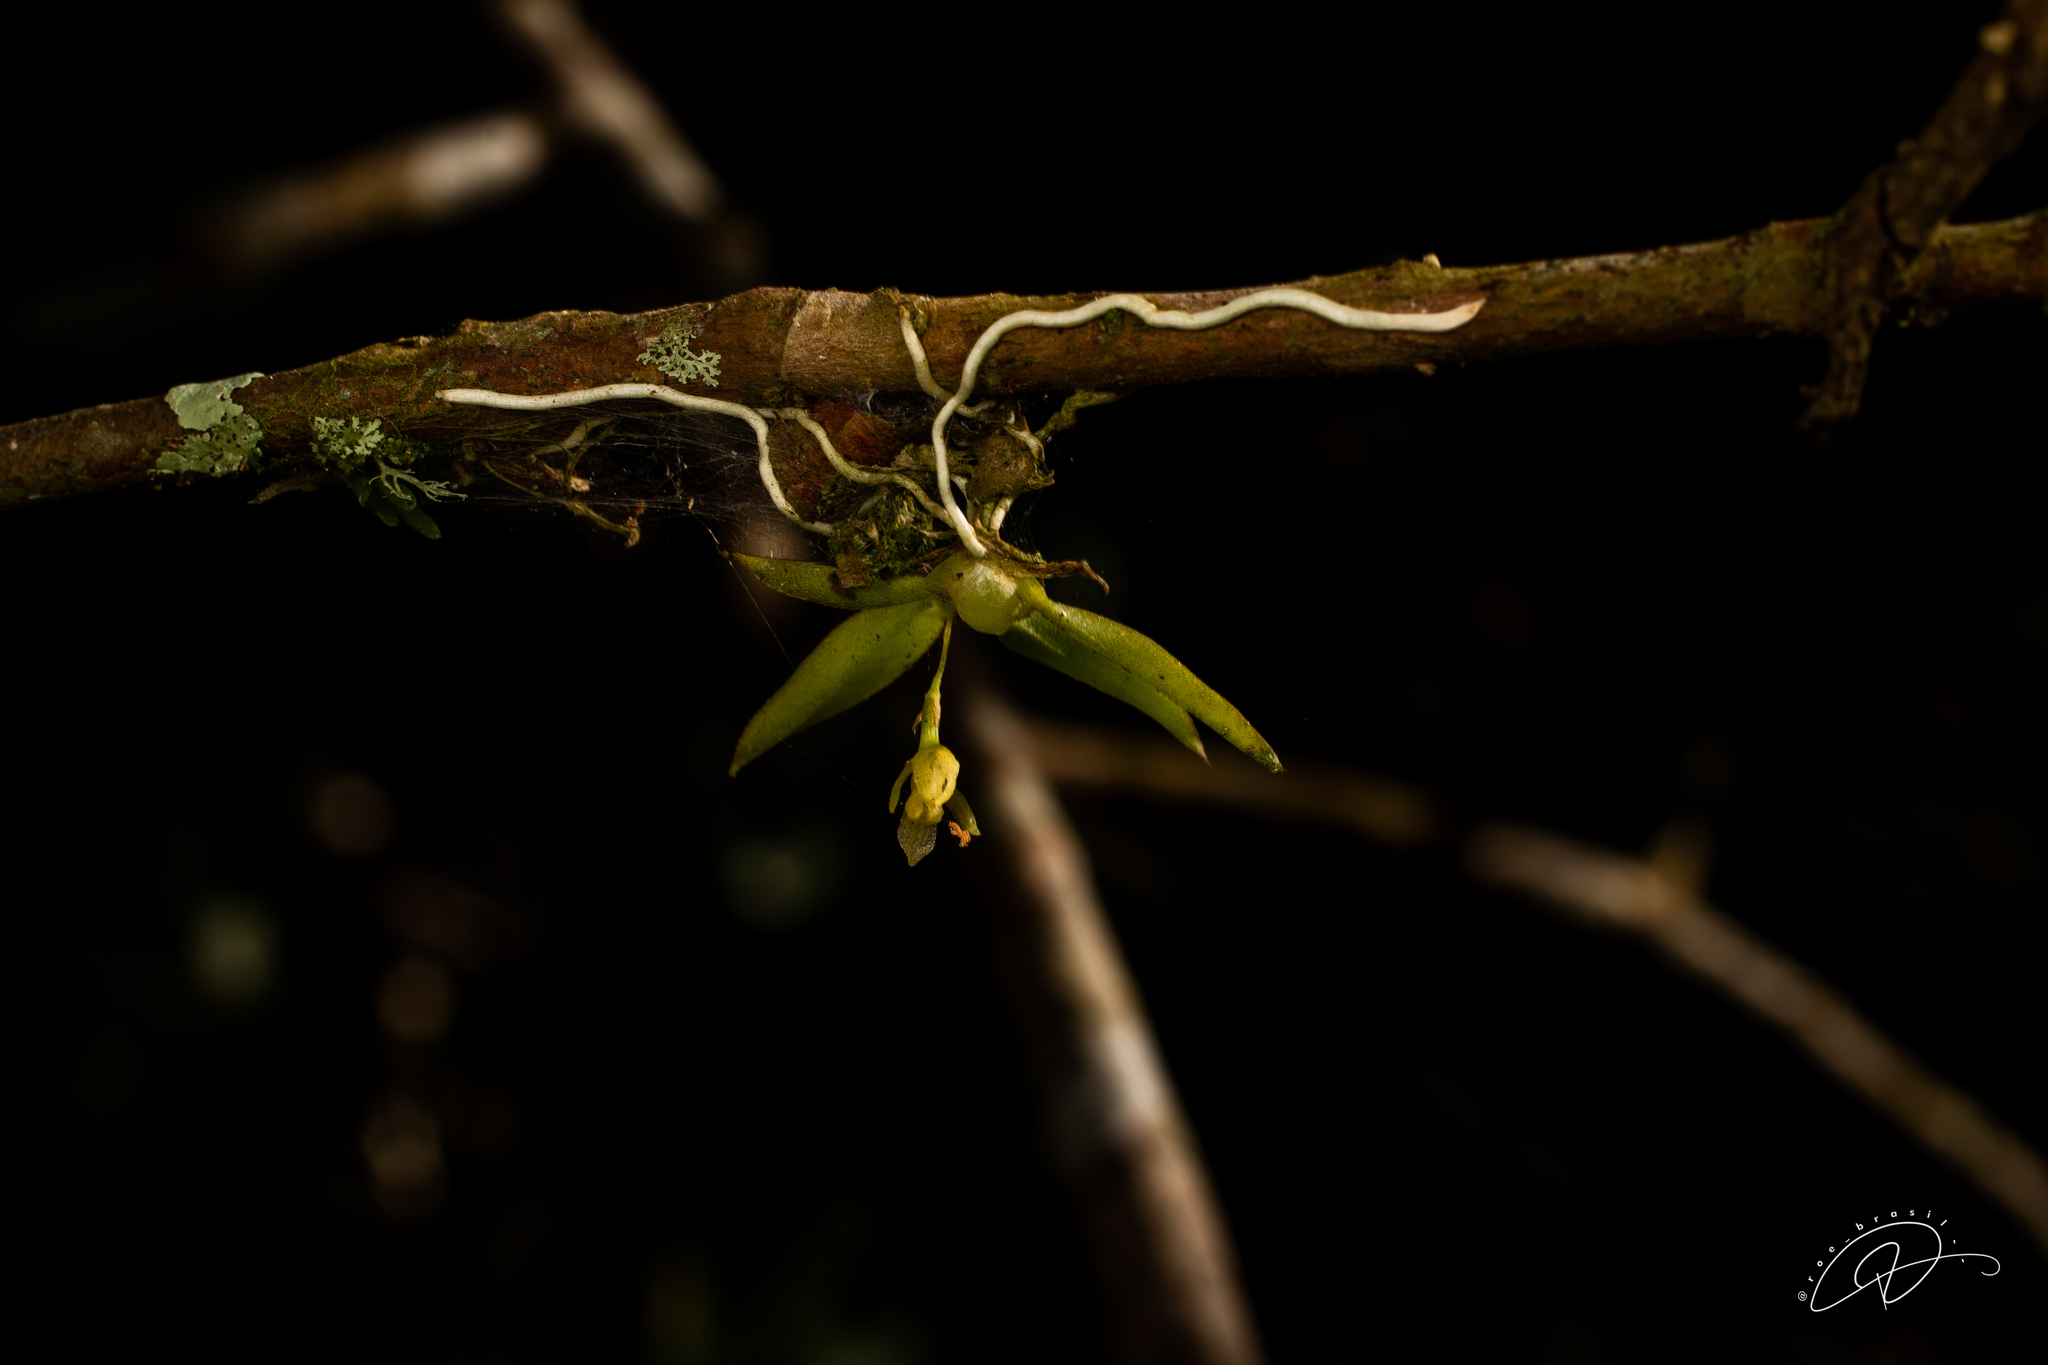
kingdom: Plantae
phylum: Tracheophyta
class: Liliopsida
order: Asparagales
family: Orchidaceae
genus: Capanemia
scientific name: Capanemia theresae
